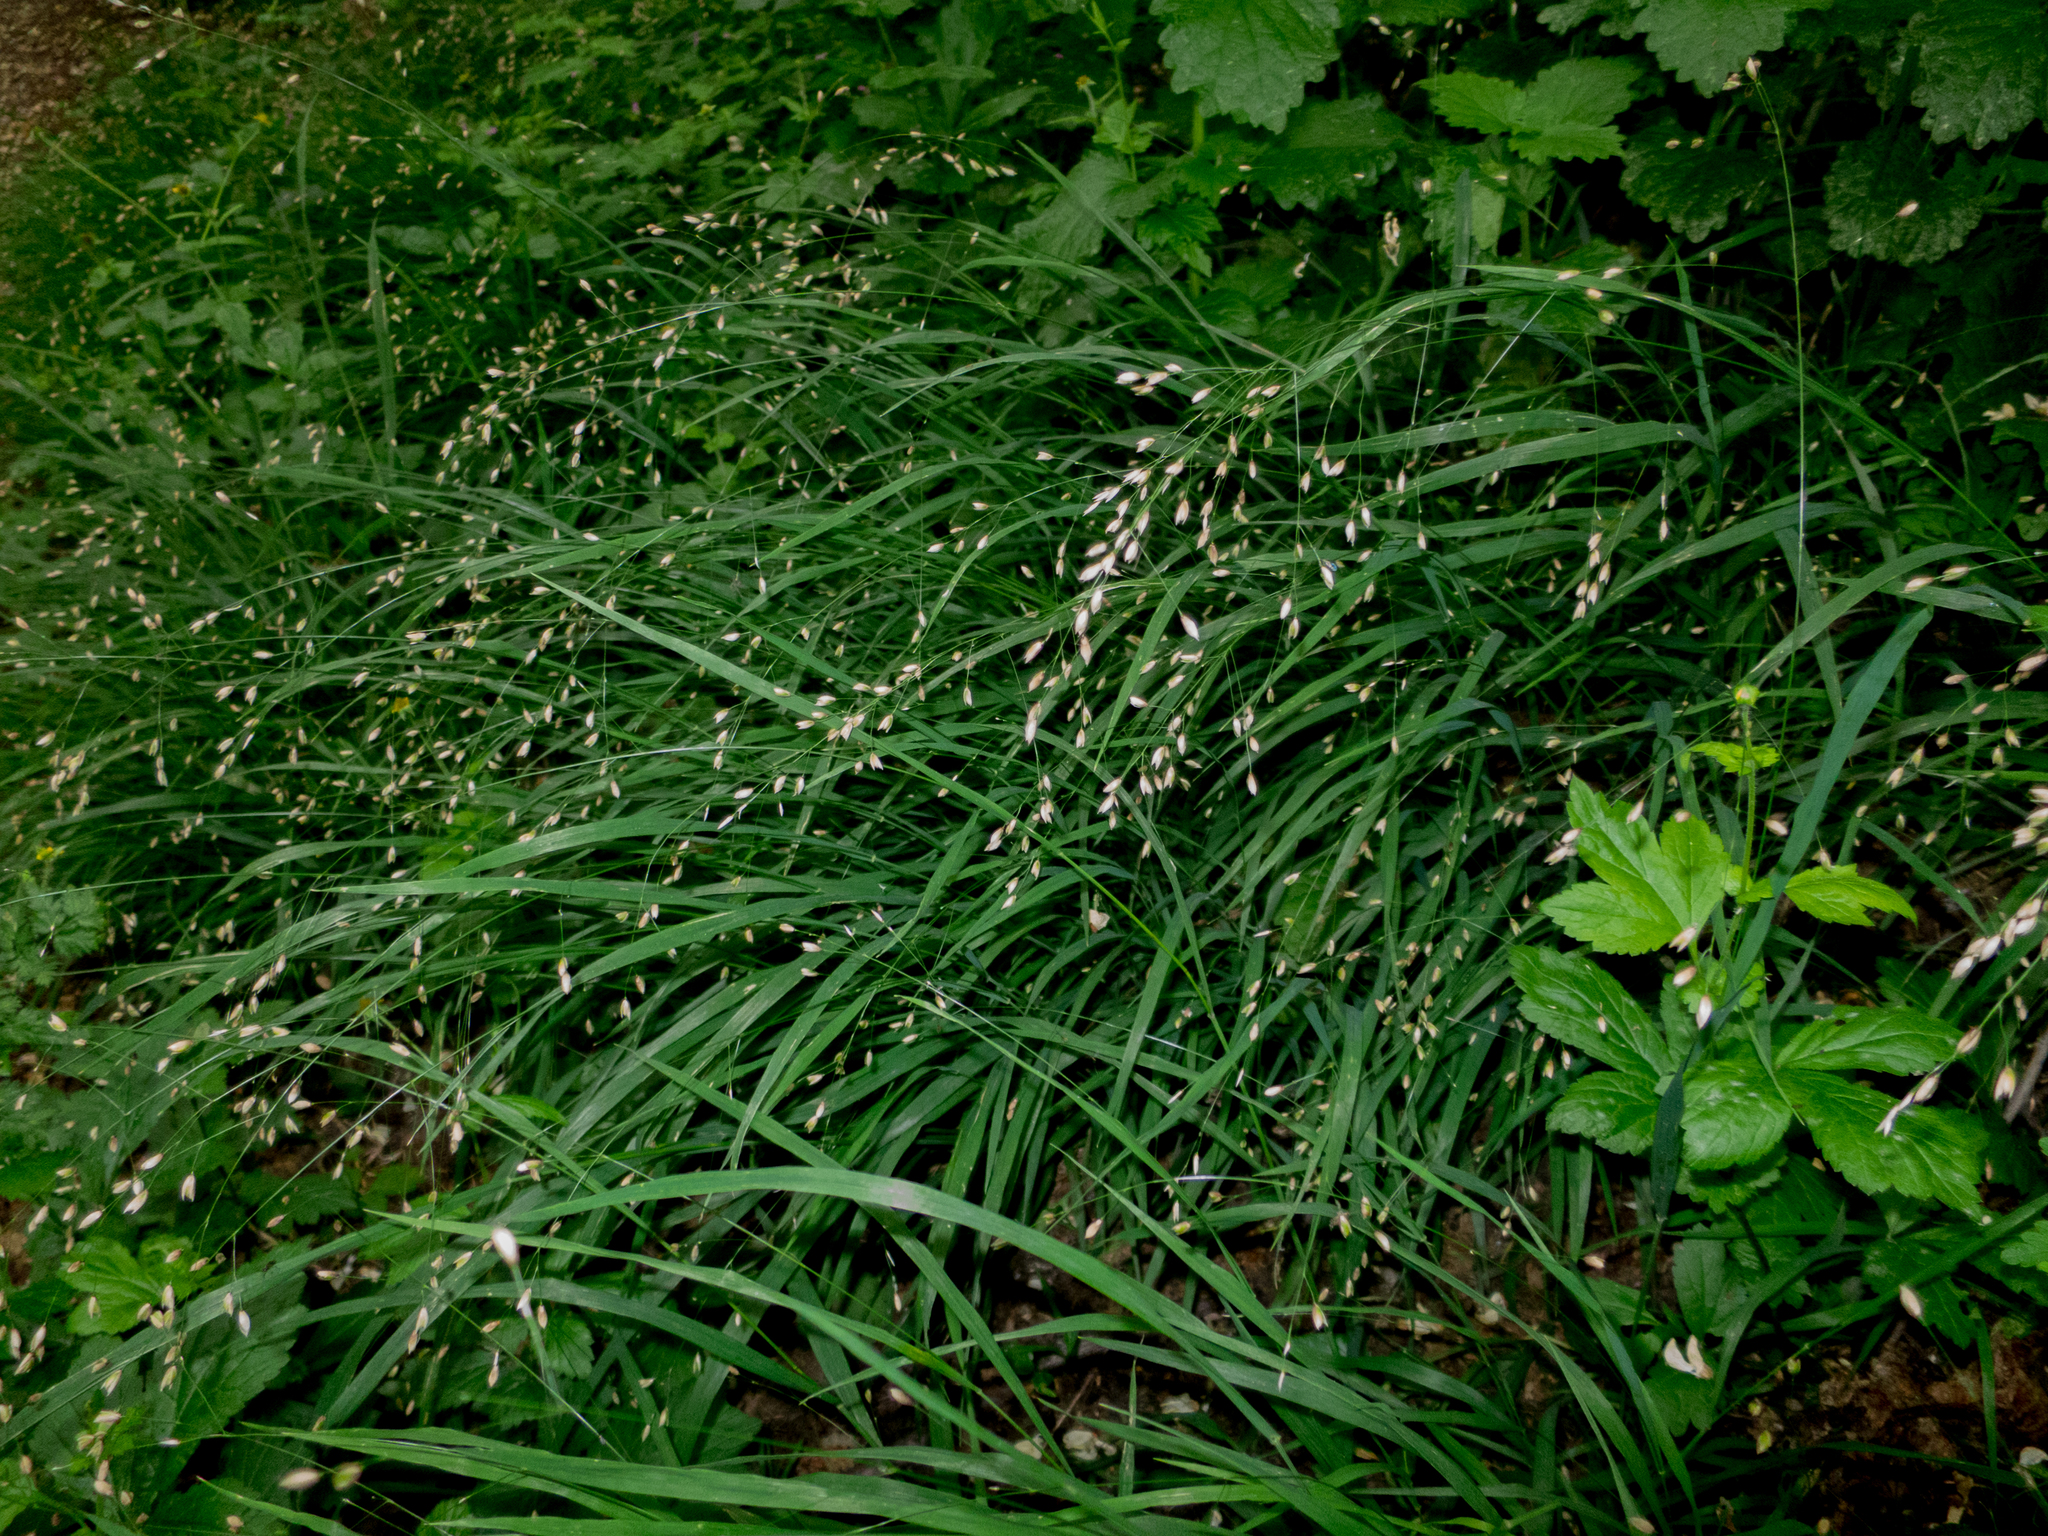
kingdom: Plantae
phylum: Tracheophyta
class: Liliopsida
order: Poales
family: Poaceae
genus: Melica
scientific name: Melica uniflora
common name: Wood melick
